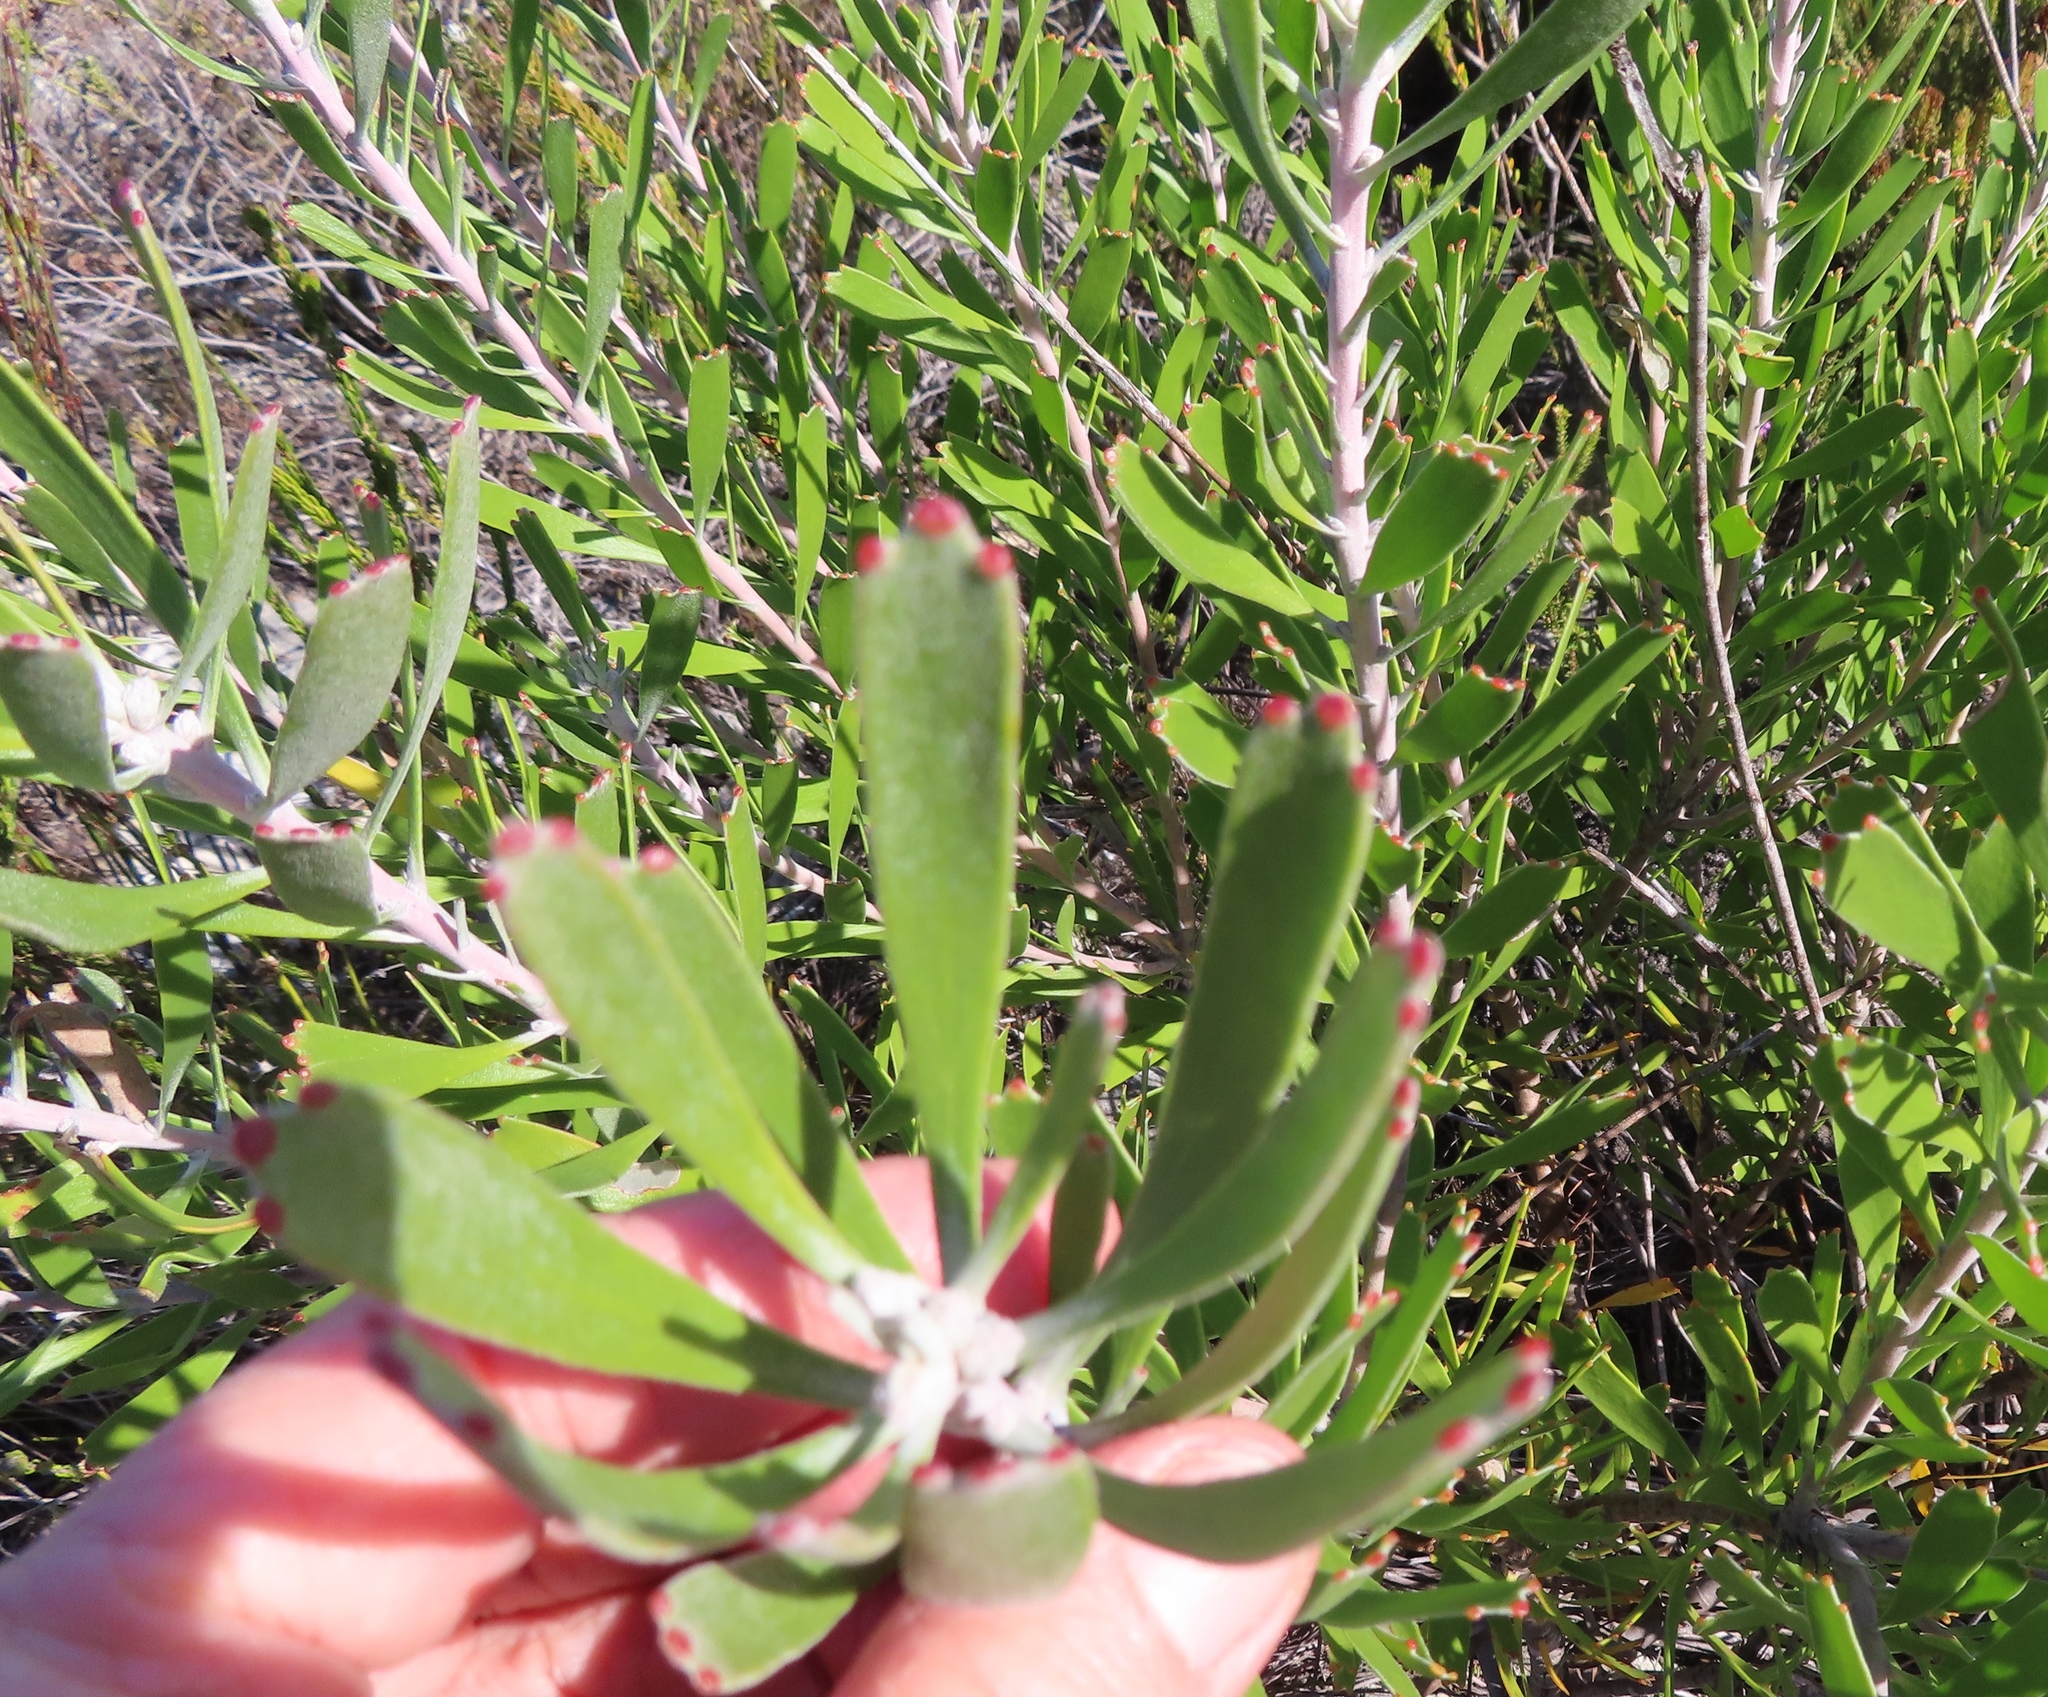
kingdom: Plantae
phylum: Tracheophyta
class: Magnoliopsida
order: Proteales
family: Proteaceae
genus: Leucospermum
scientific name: Leucospermum truncatum
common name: Limestone pincushion
